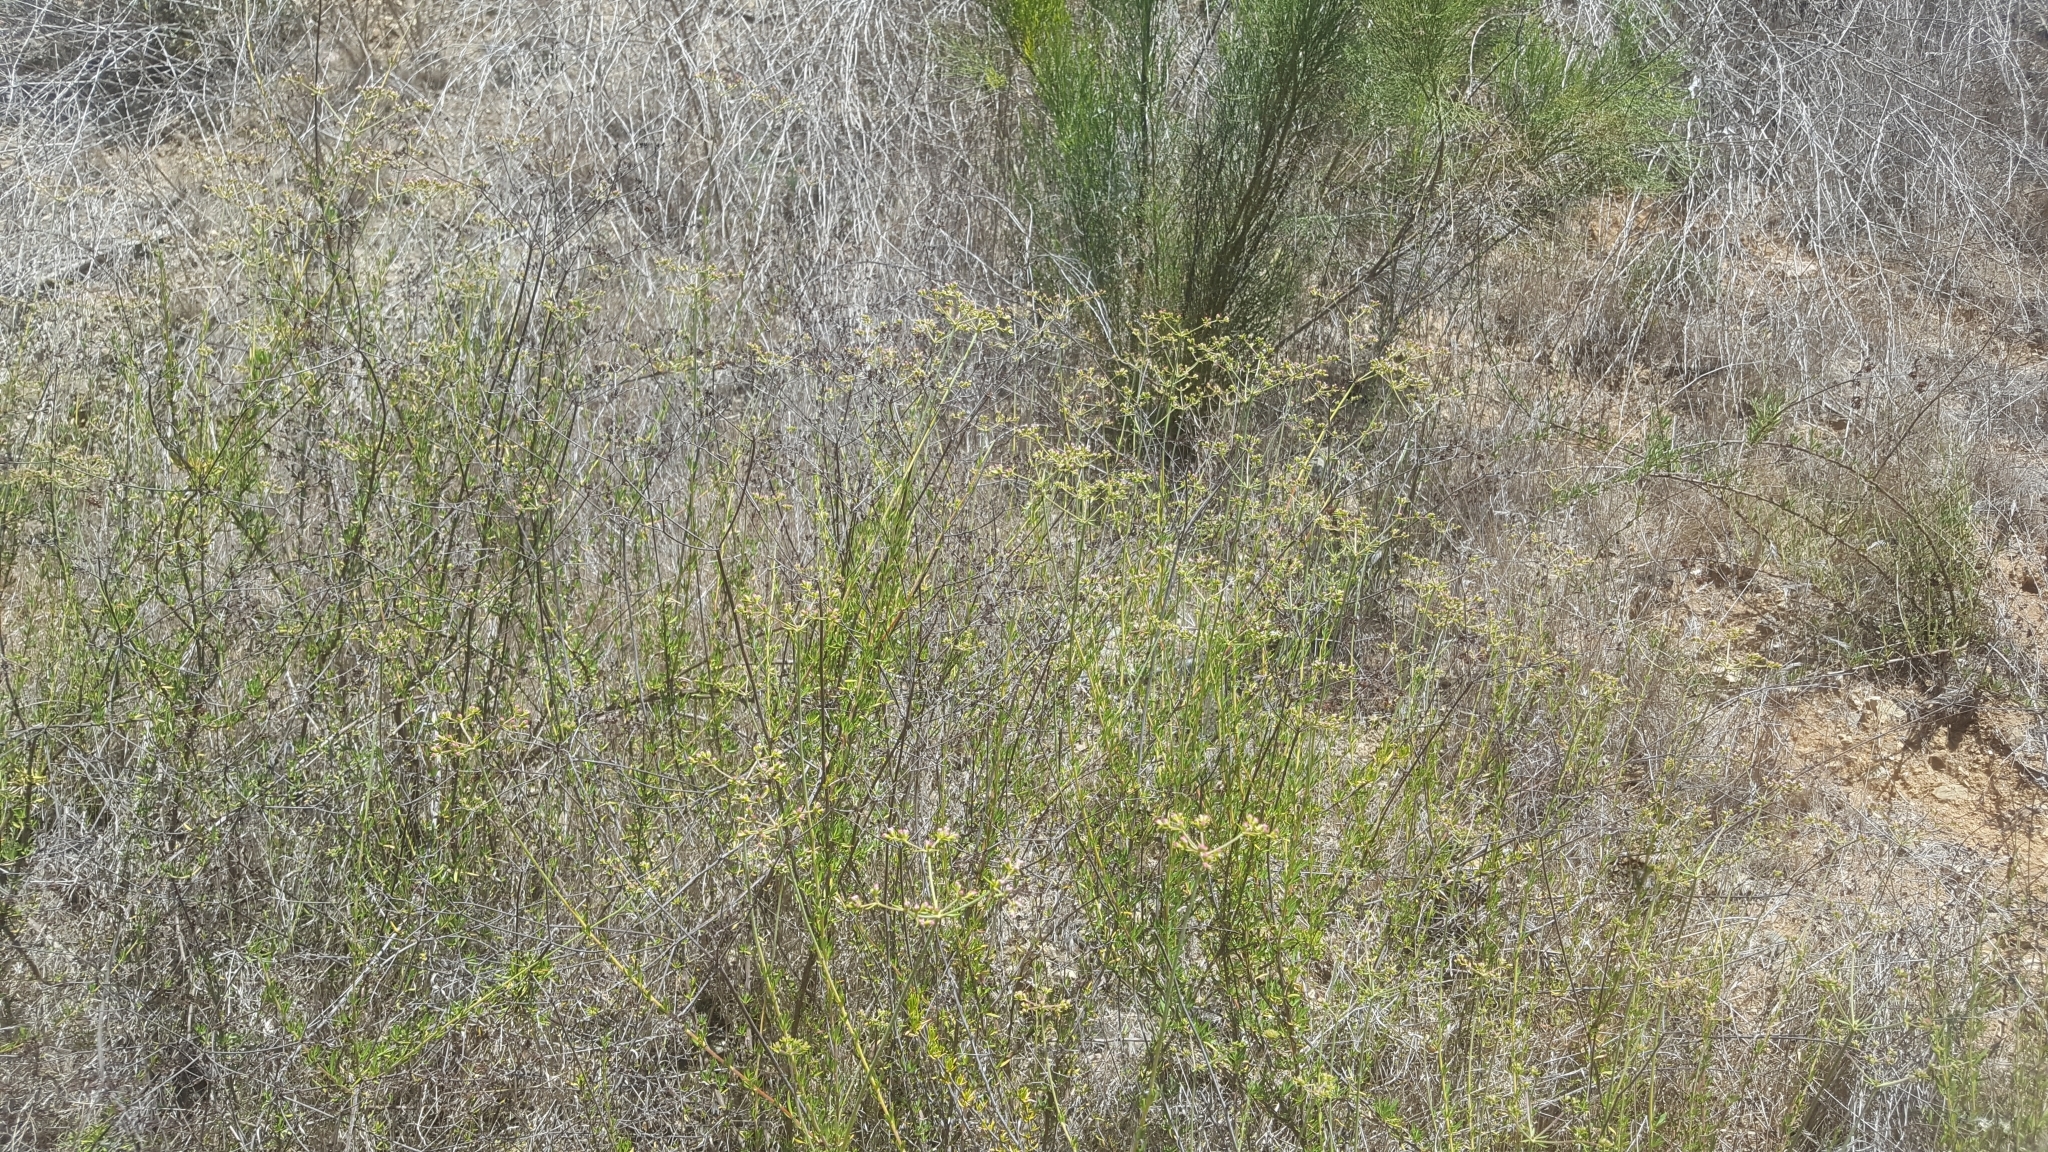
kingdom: Plantae
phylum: Tracheophyta
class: Magnoliopsida
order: Caryophyllales
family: Polygonaceae
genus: Eriogonum
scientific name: Eriogonum fasciculatum
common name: California wild buckwheat
